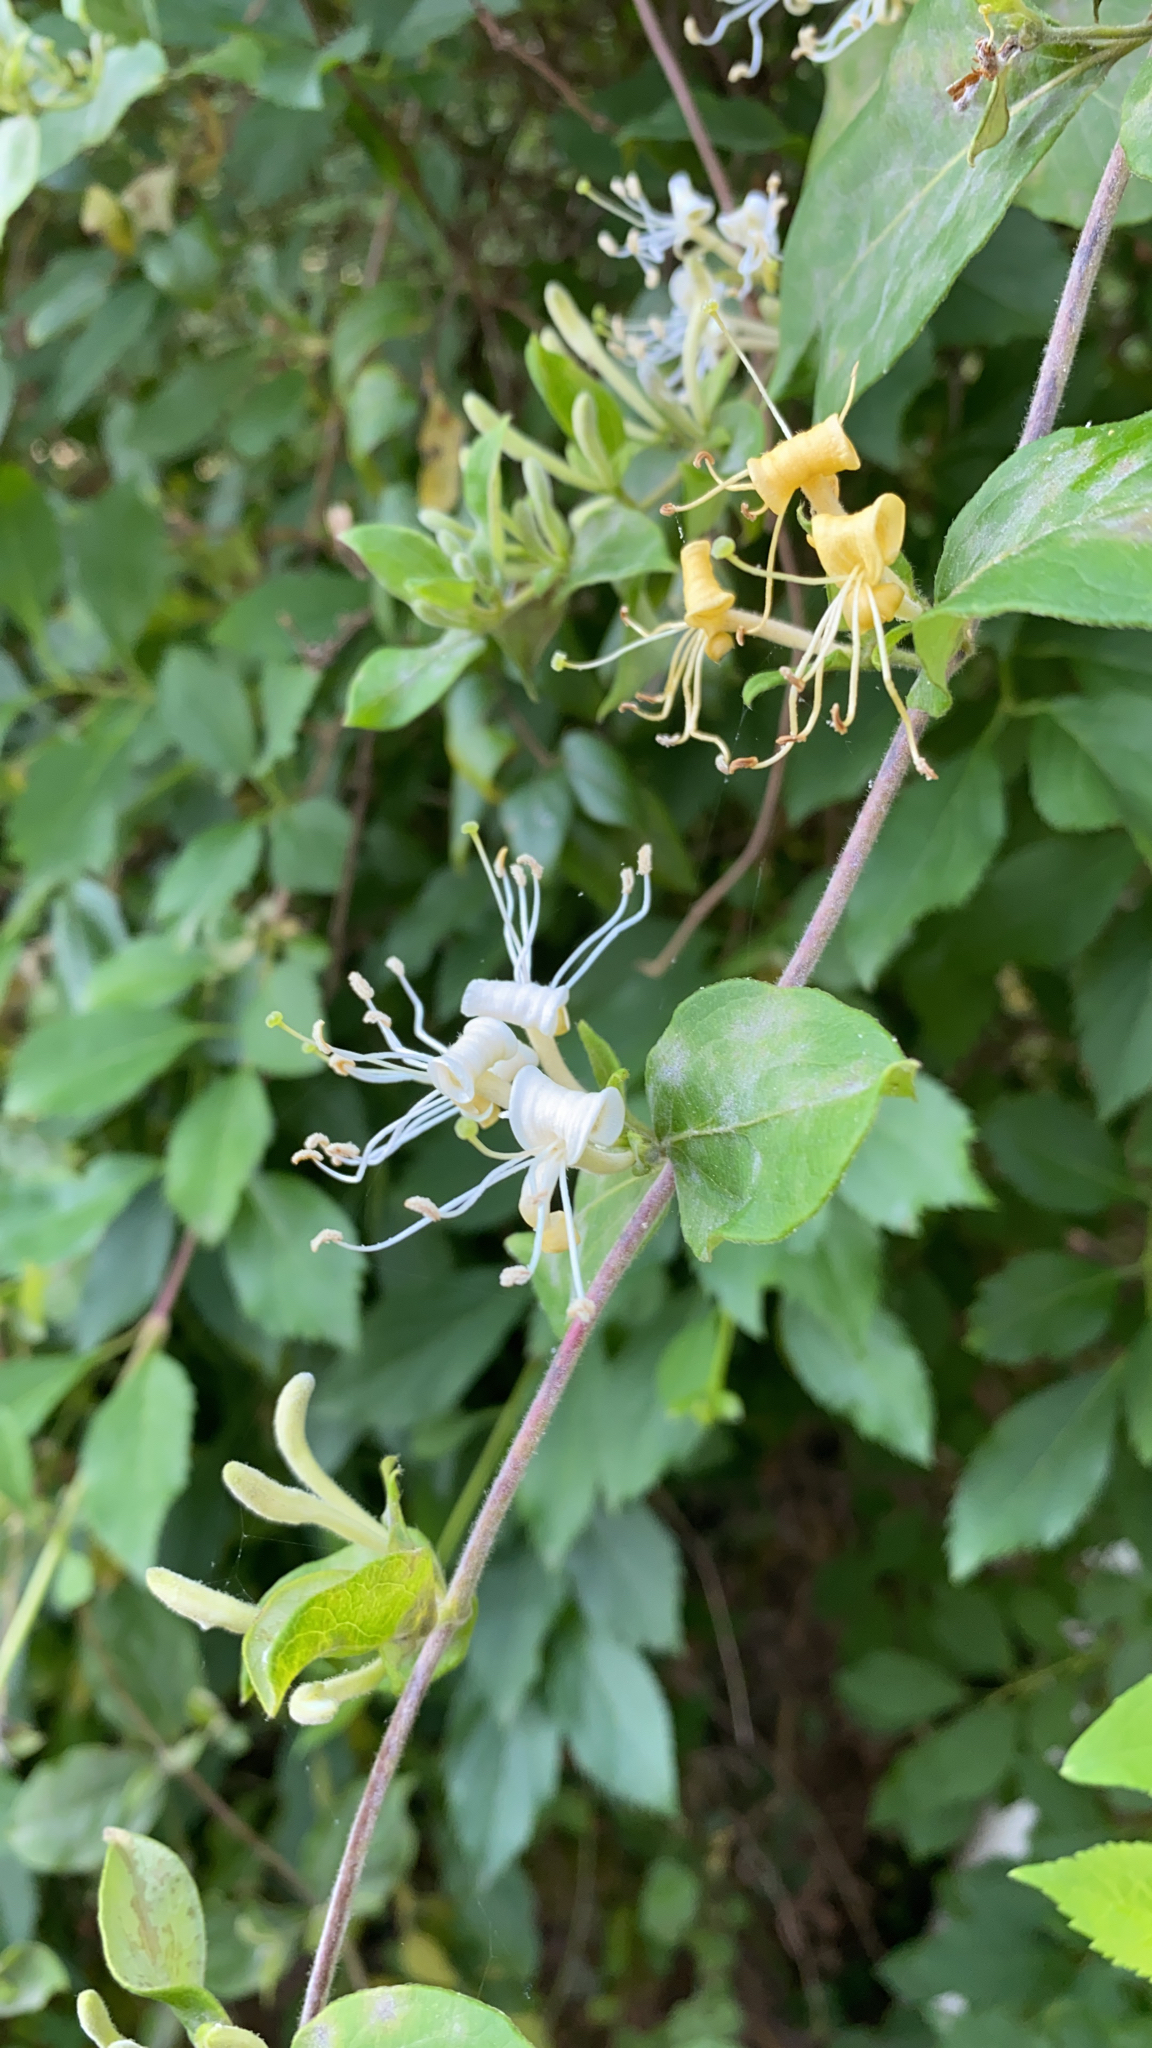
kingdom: Plantae
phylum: Tracheophyta
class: Magnoliopsida
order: Dipsacales
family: Caprifoliaceae
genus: Lonicera
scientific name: Lonicera japonica
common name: Japanese honeysuckle
